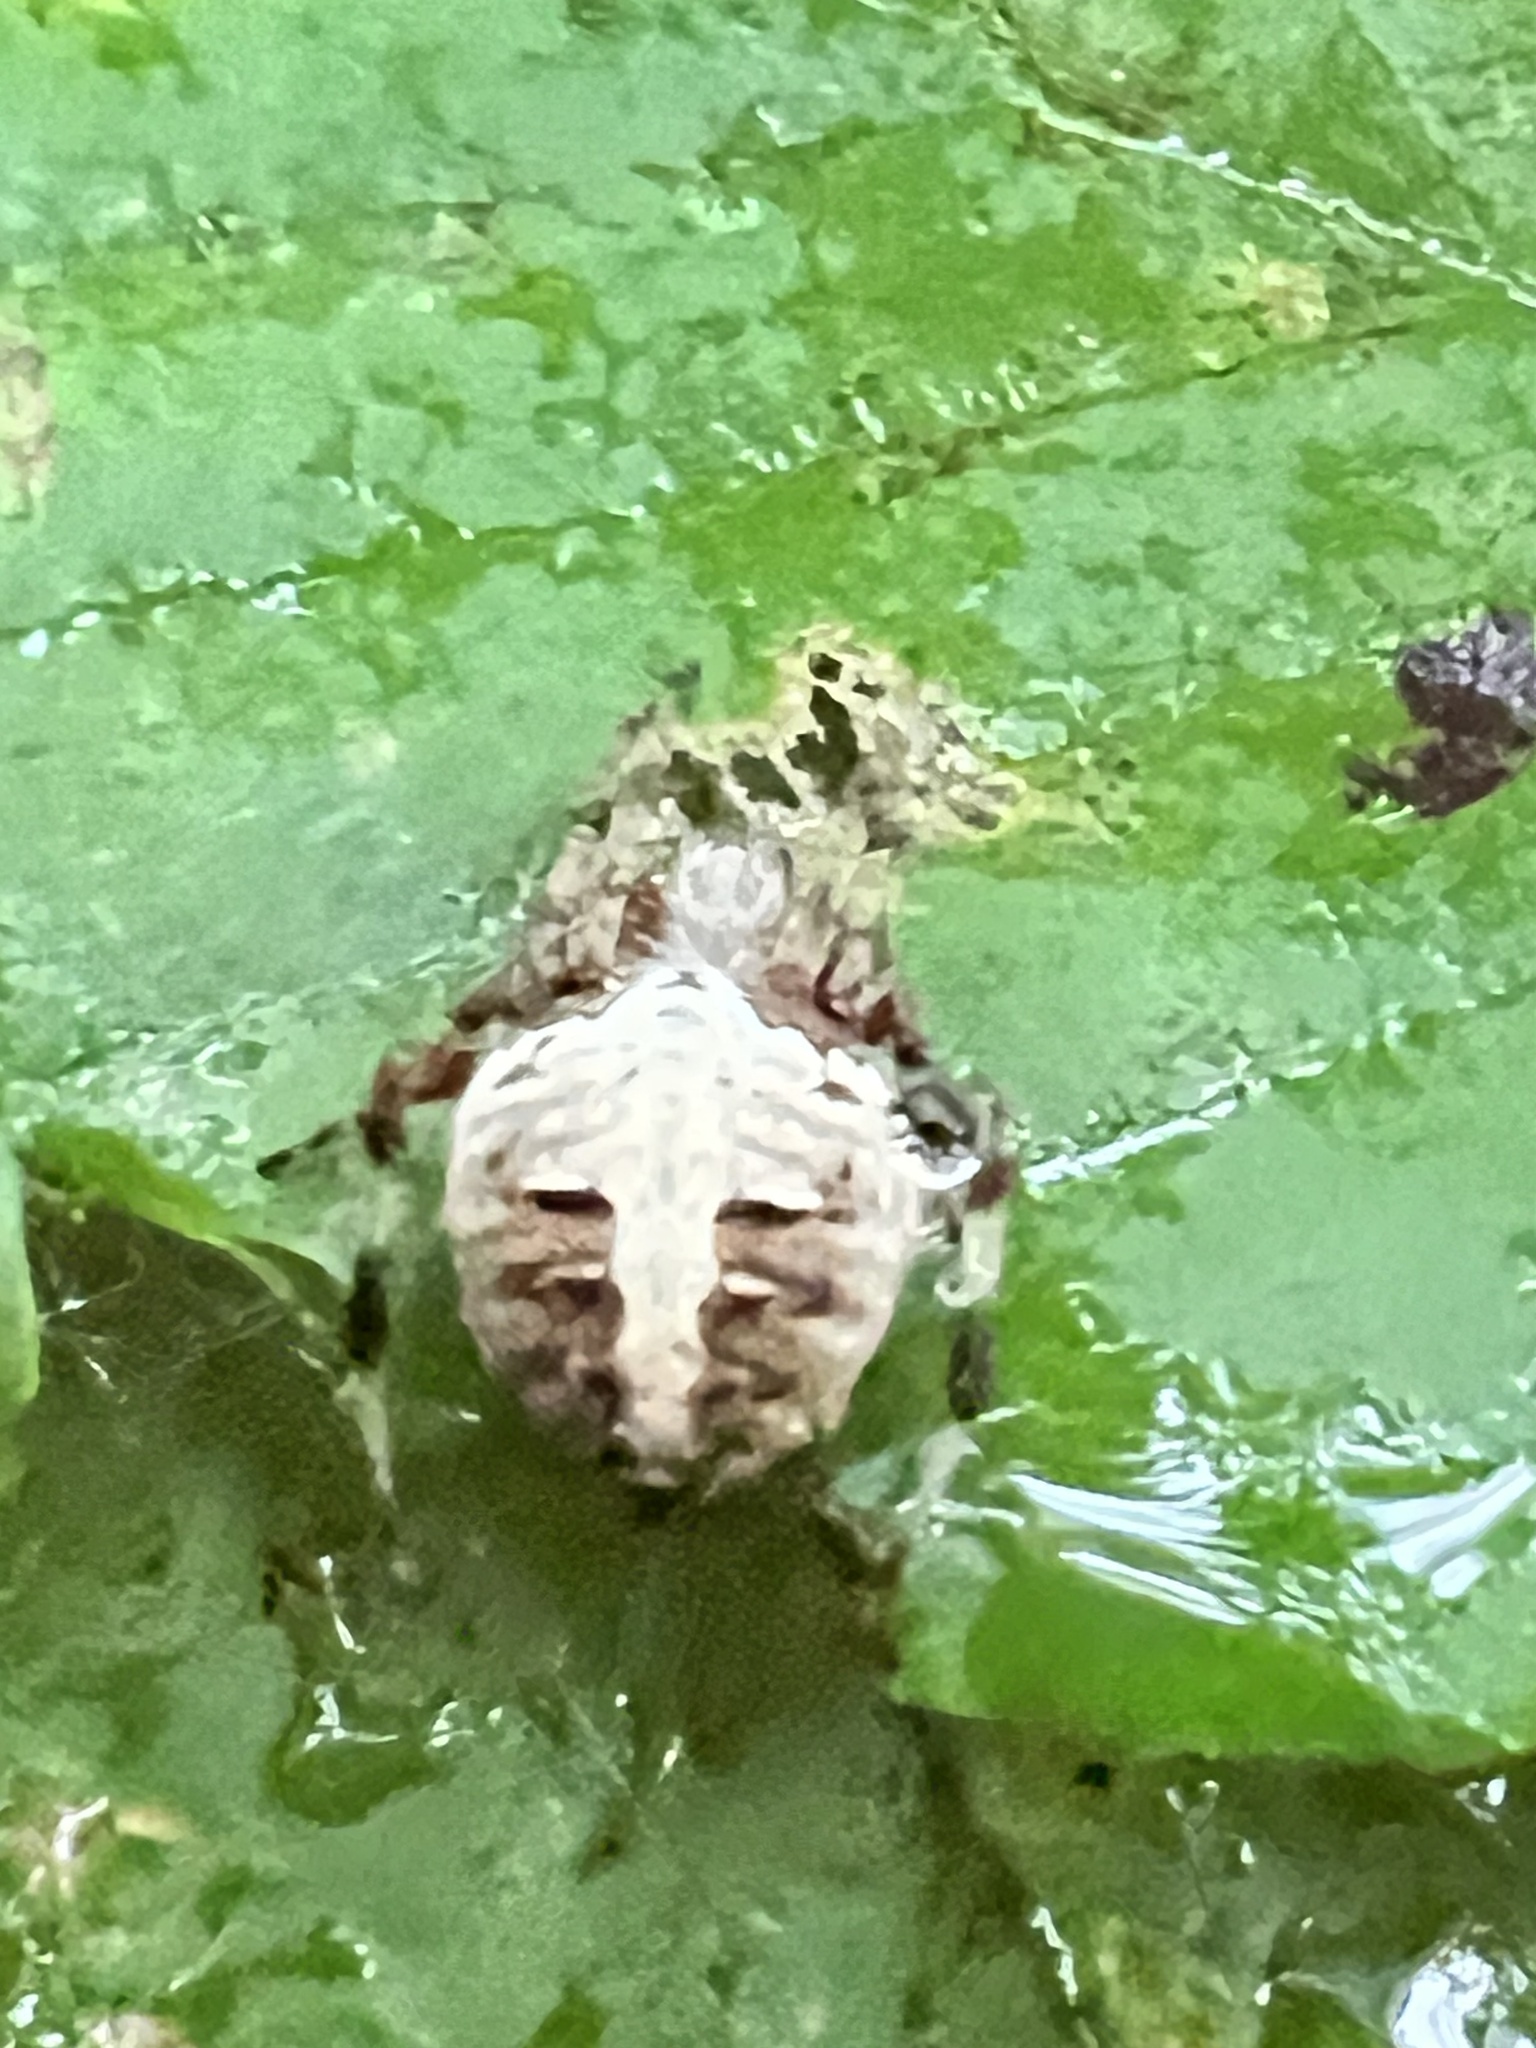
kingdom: Animalia
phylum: Arthropoda
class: Arachnida
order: Araneae
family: Araneidae
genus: Neoscona
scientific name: Neoscona domiciliorum
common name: Red-femured spotted orbweaver
